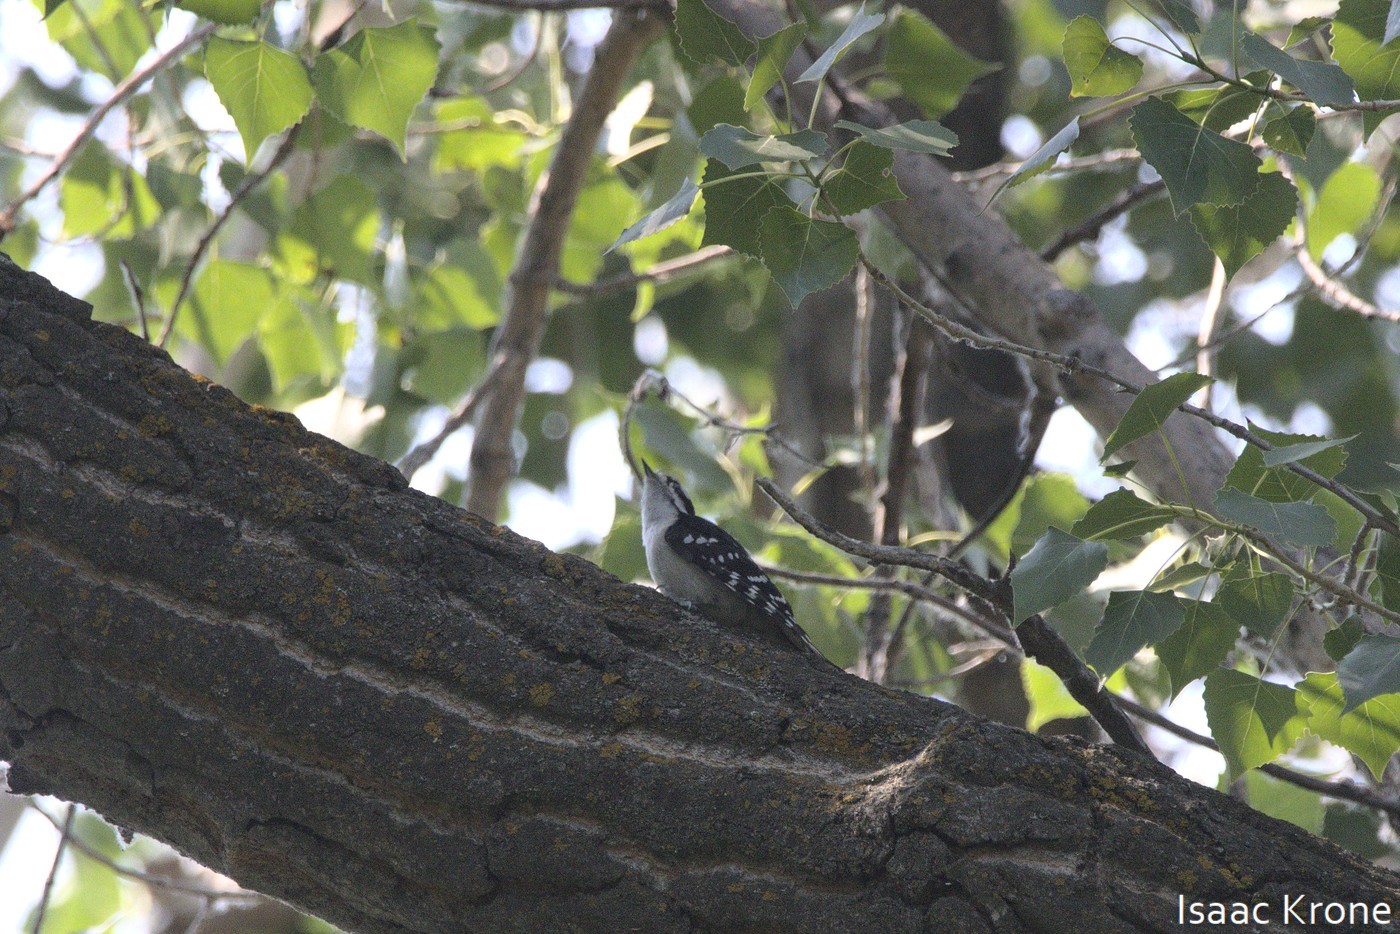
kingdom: Animalia
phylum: Chordata
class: Aves
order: Piciformes
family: Picidae
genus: Dryobates
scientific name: Dryobates pubescens
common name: Downy woodpecker
